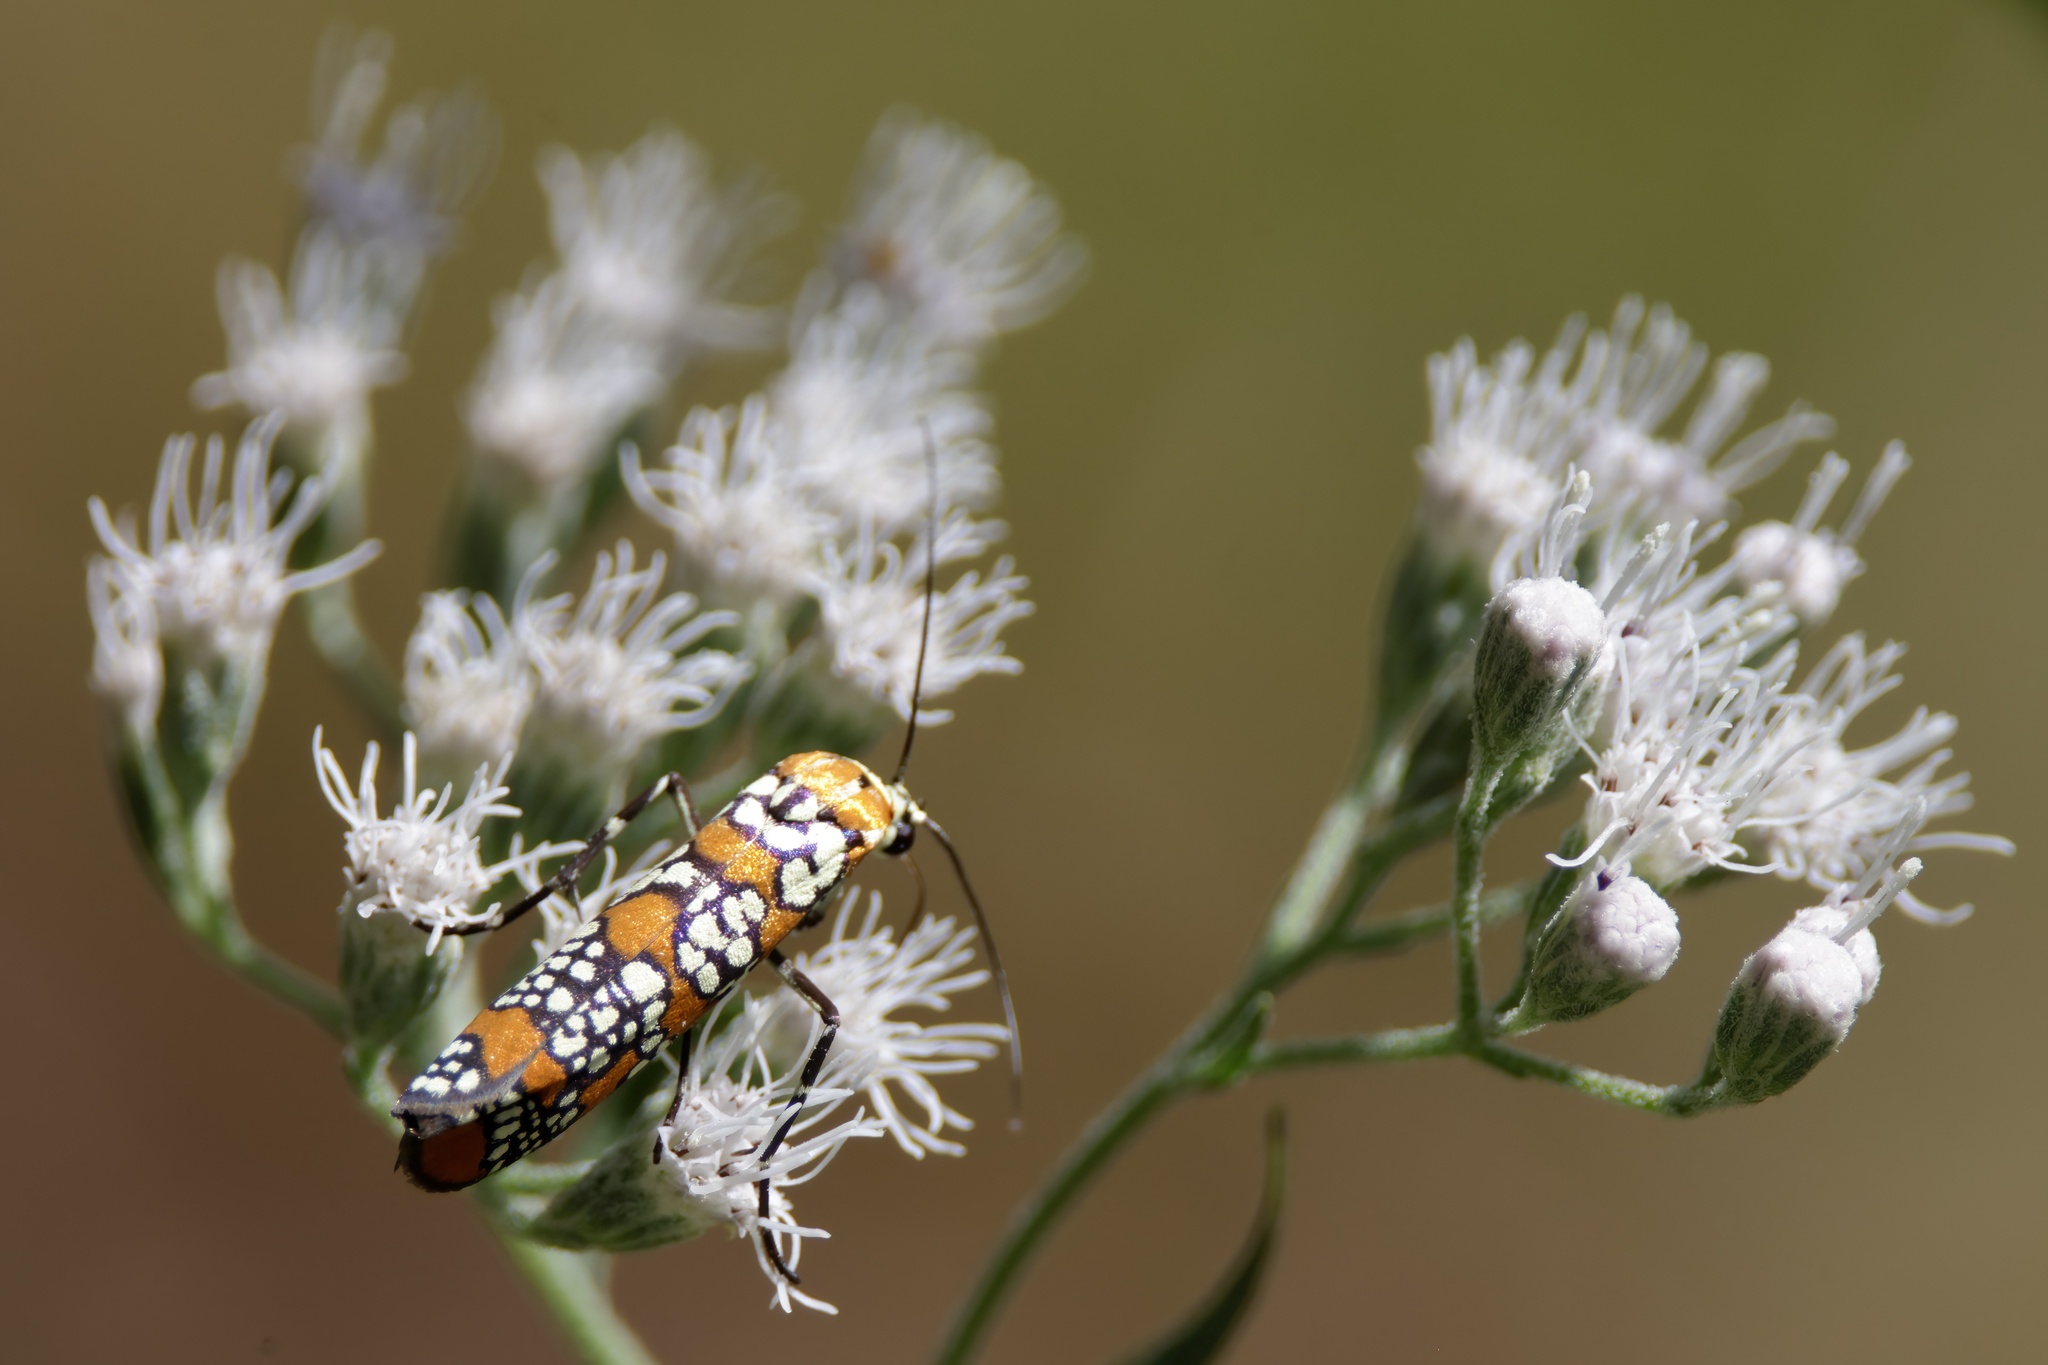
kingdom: Animalia
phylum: Arthropoda
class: Insecta
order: Lepidoptera
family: Attevidae
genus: Atteva
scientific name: Atteva punctella
